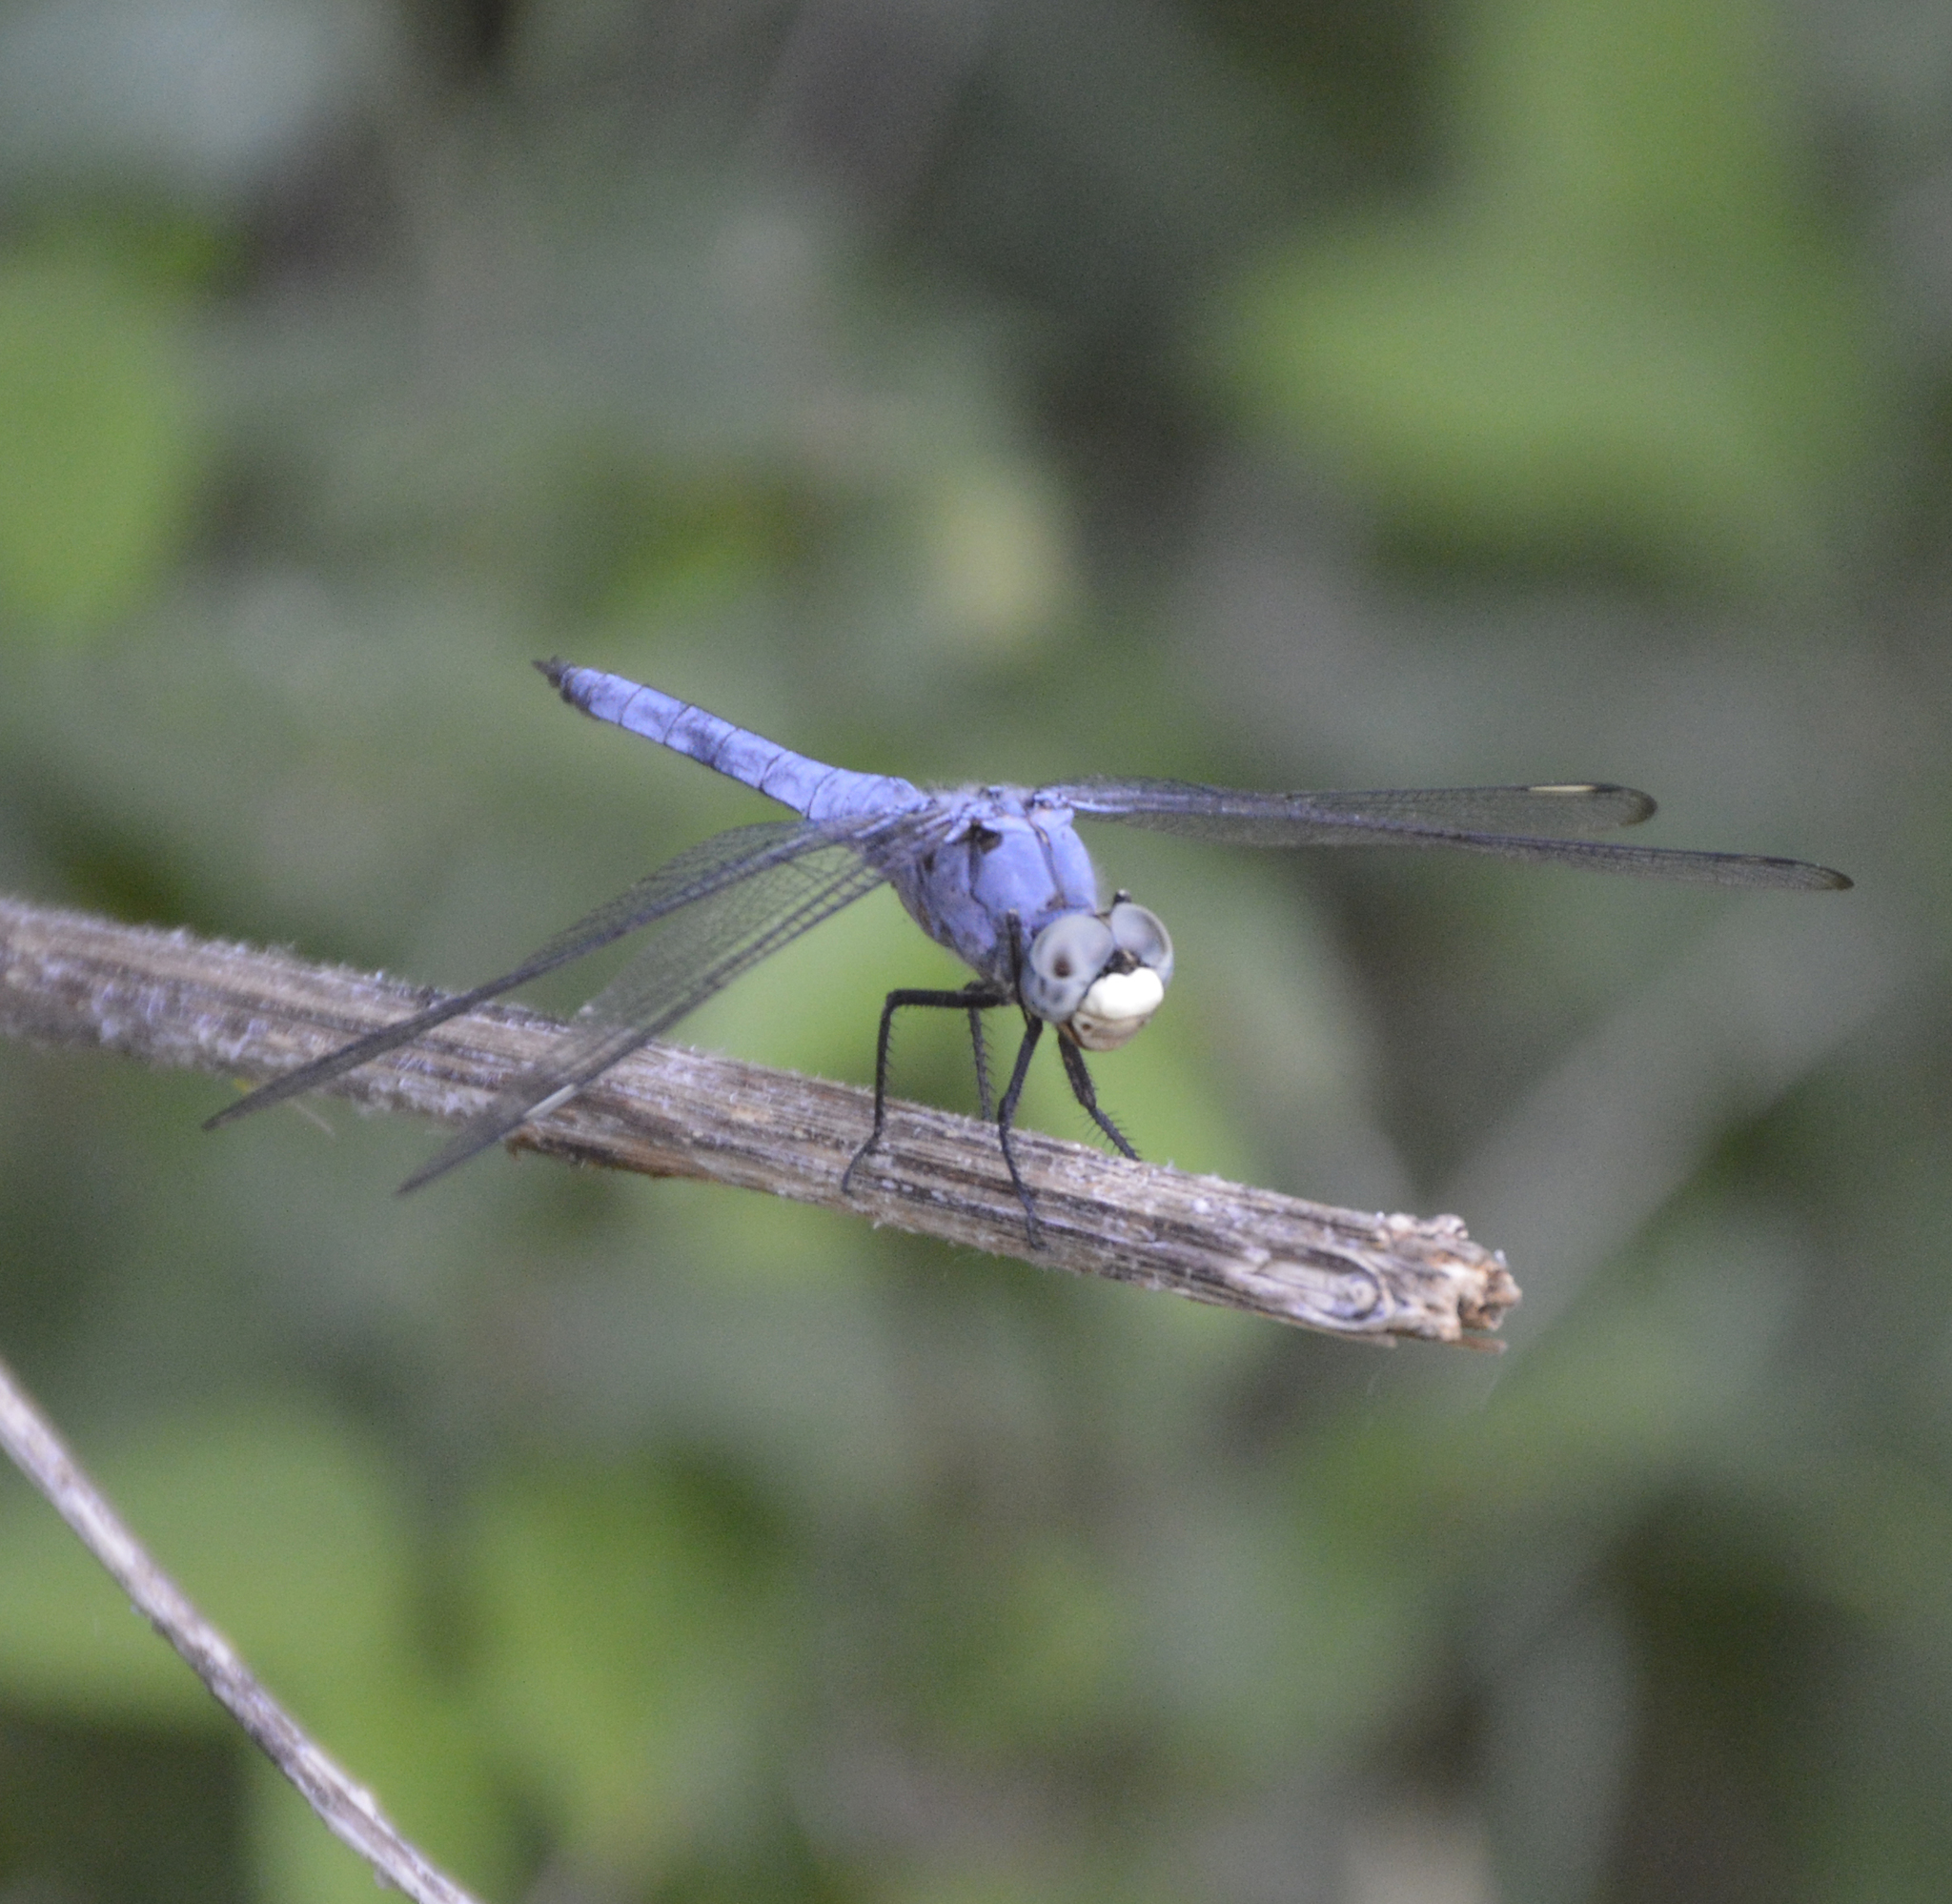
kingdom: Animalia
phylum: Arthropoda
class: Insecta
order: Odonata
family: Libellulidae
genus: Libellula
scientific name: Libellula comanche
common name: Comanche skimmer
